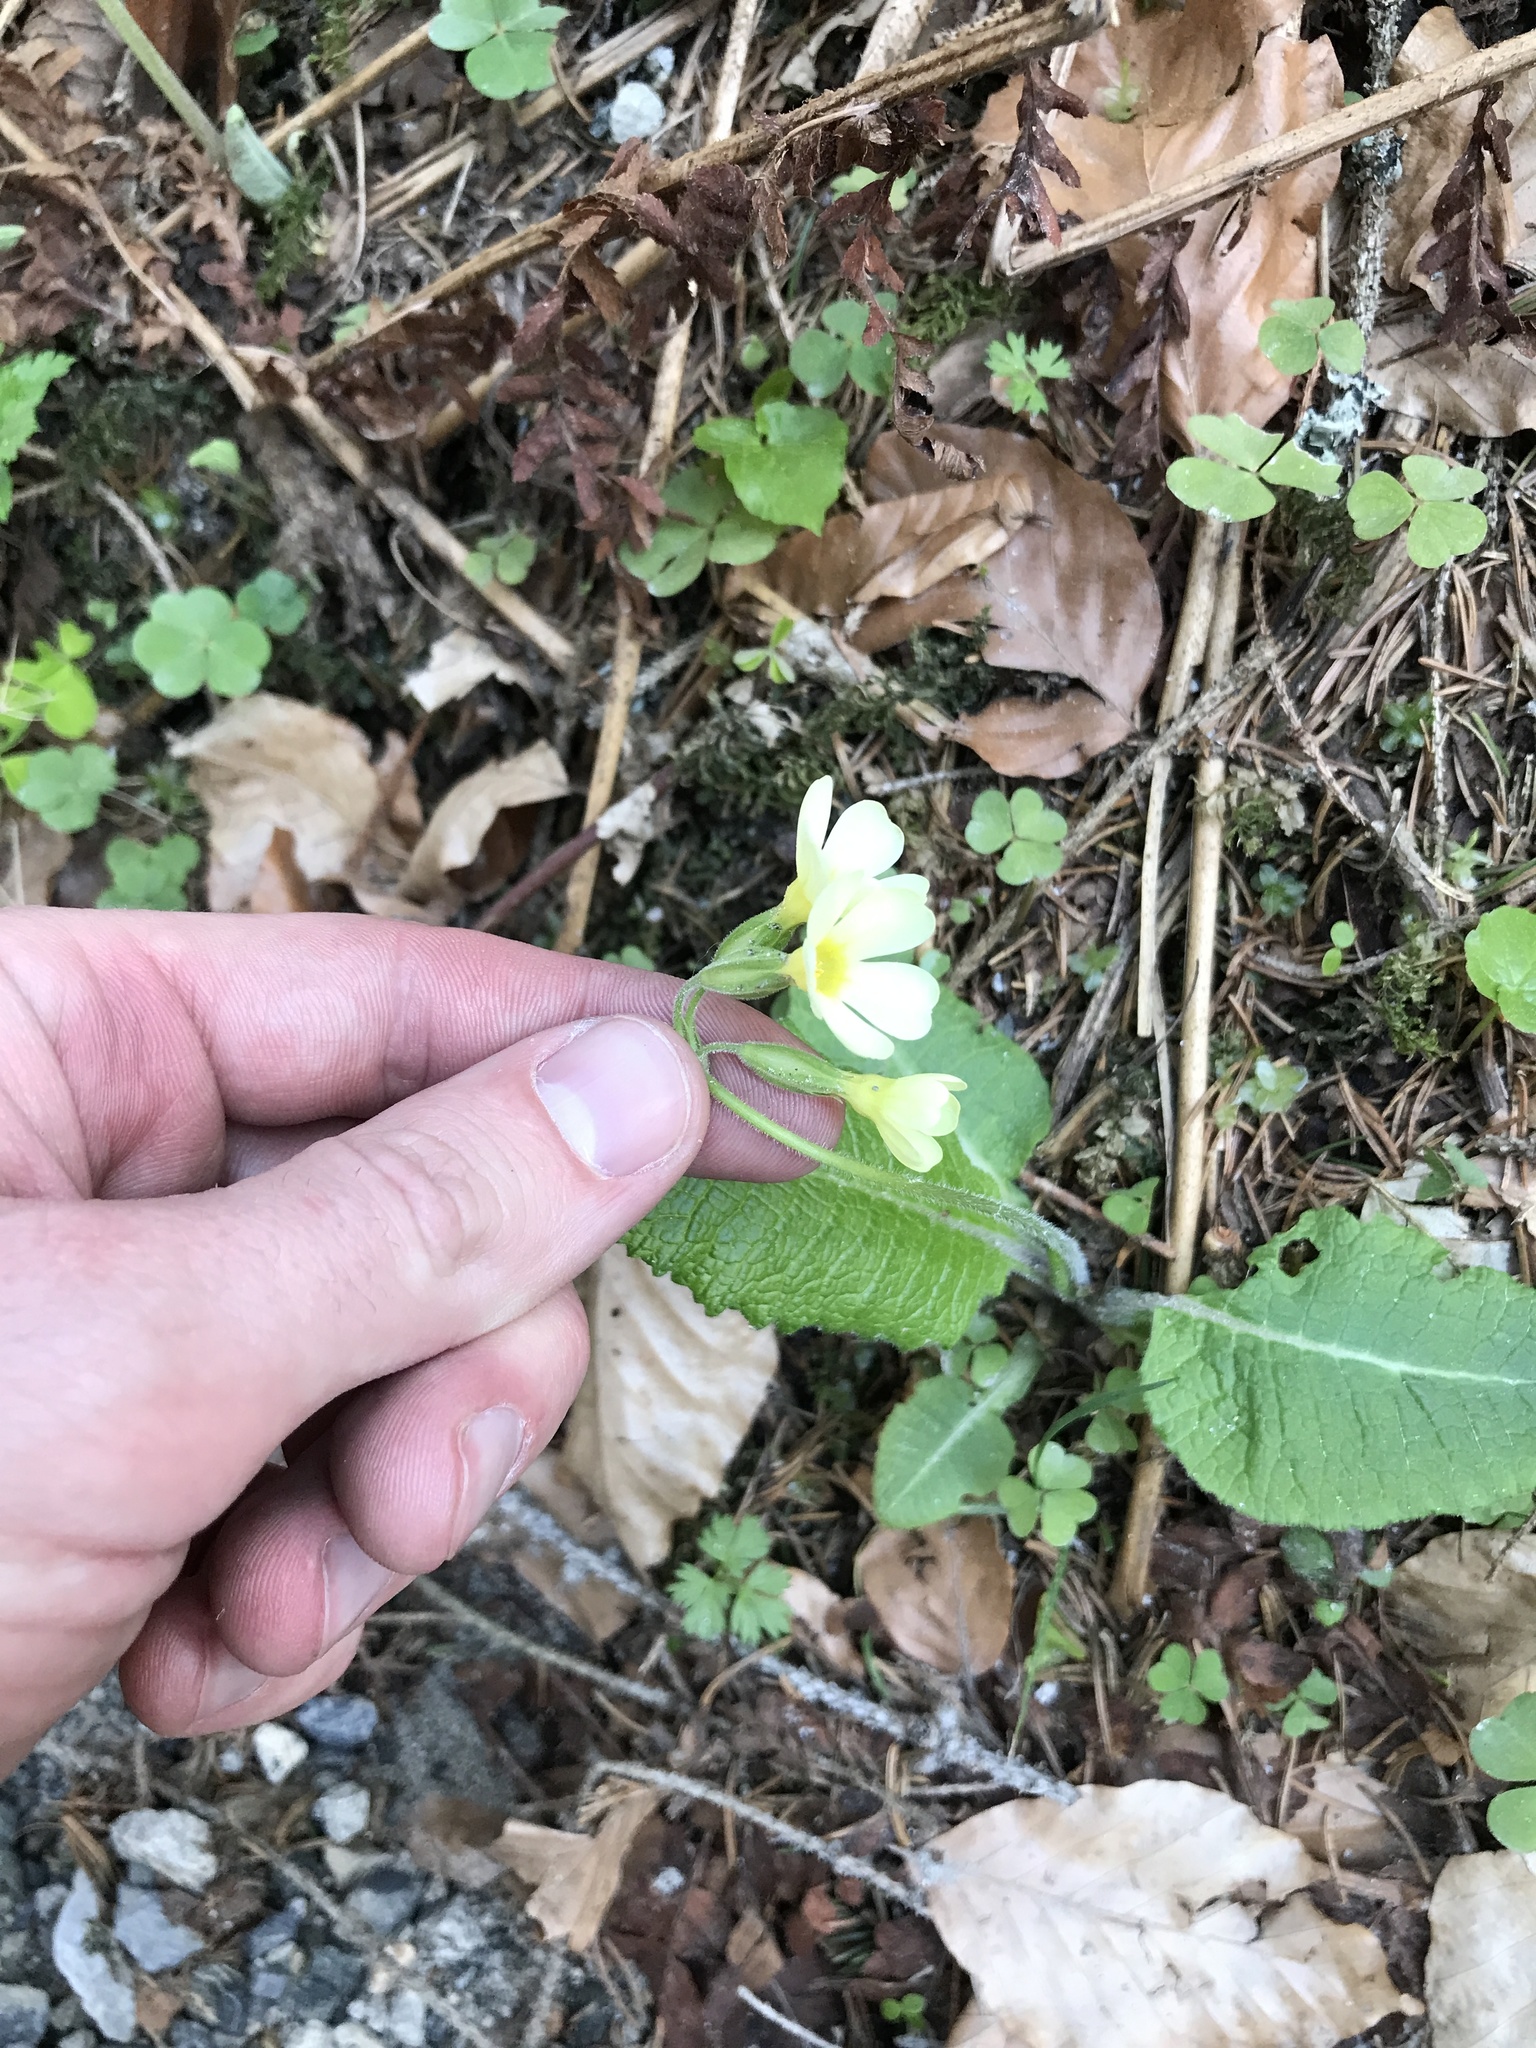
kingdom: Plantae
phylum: Tracheophyta
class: Magnoliopsida
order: Ericales
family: Primulaceae
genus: Primula
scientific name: Primula elatior
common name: Oxlip
